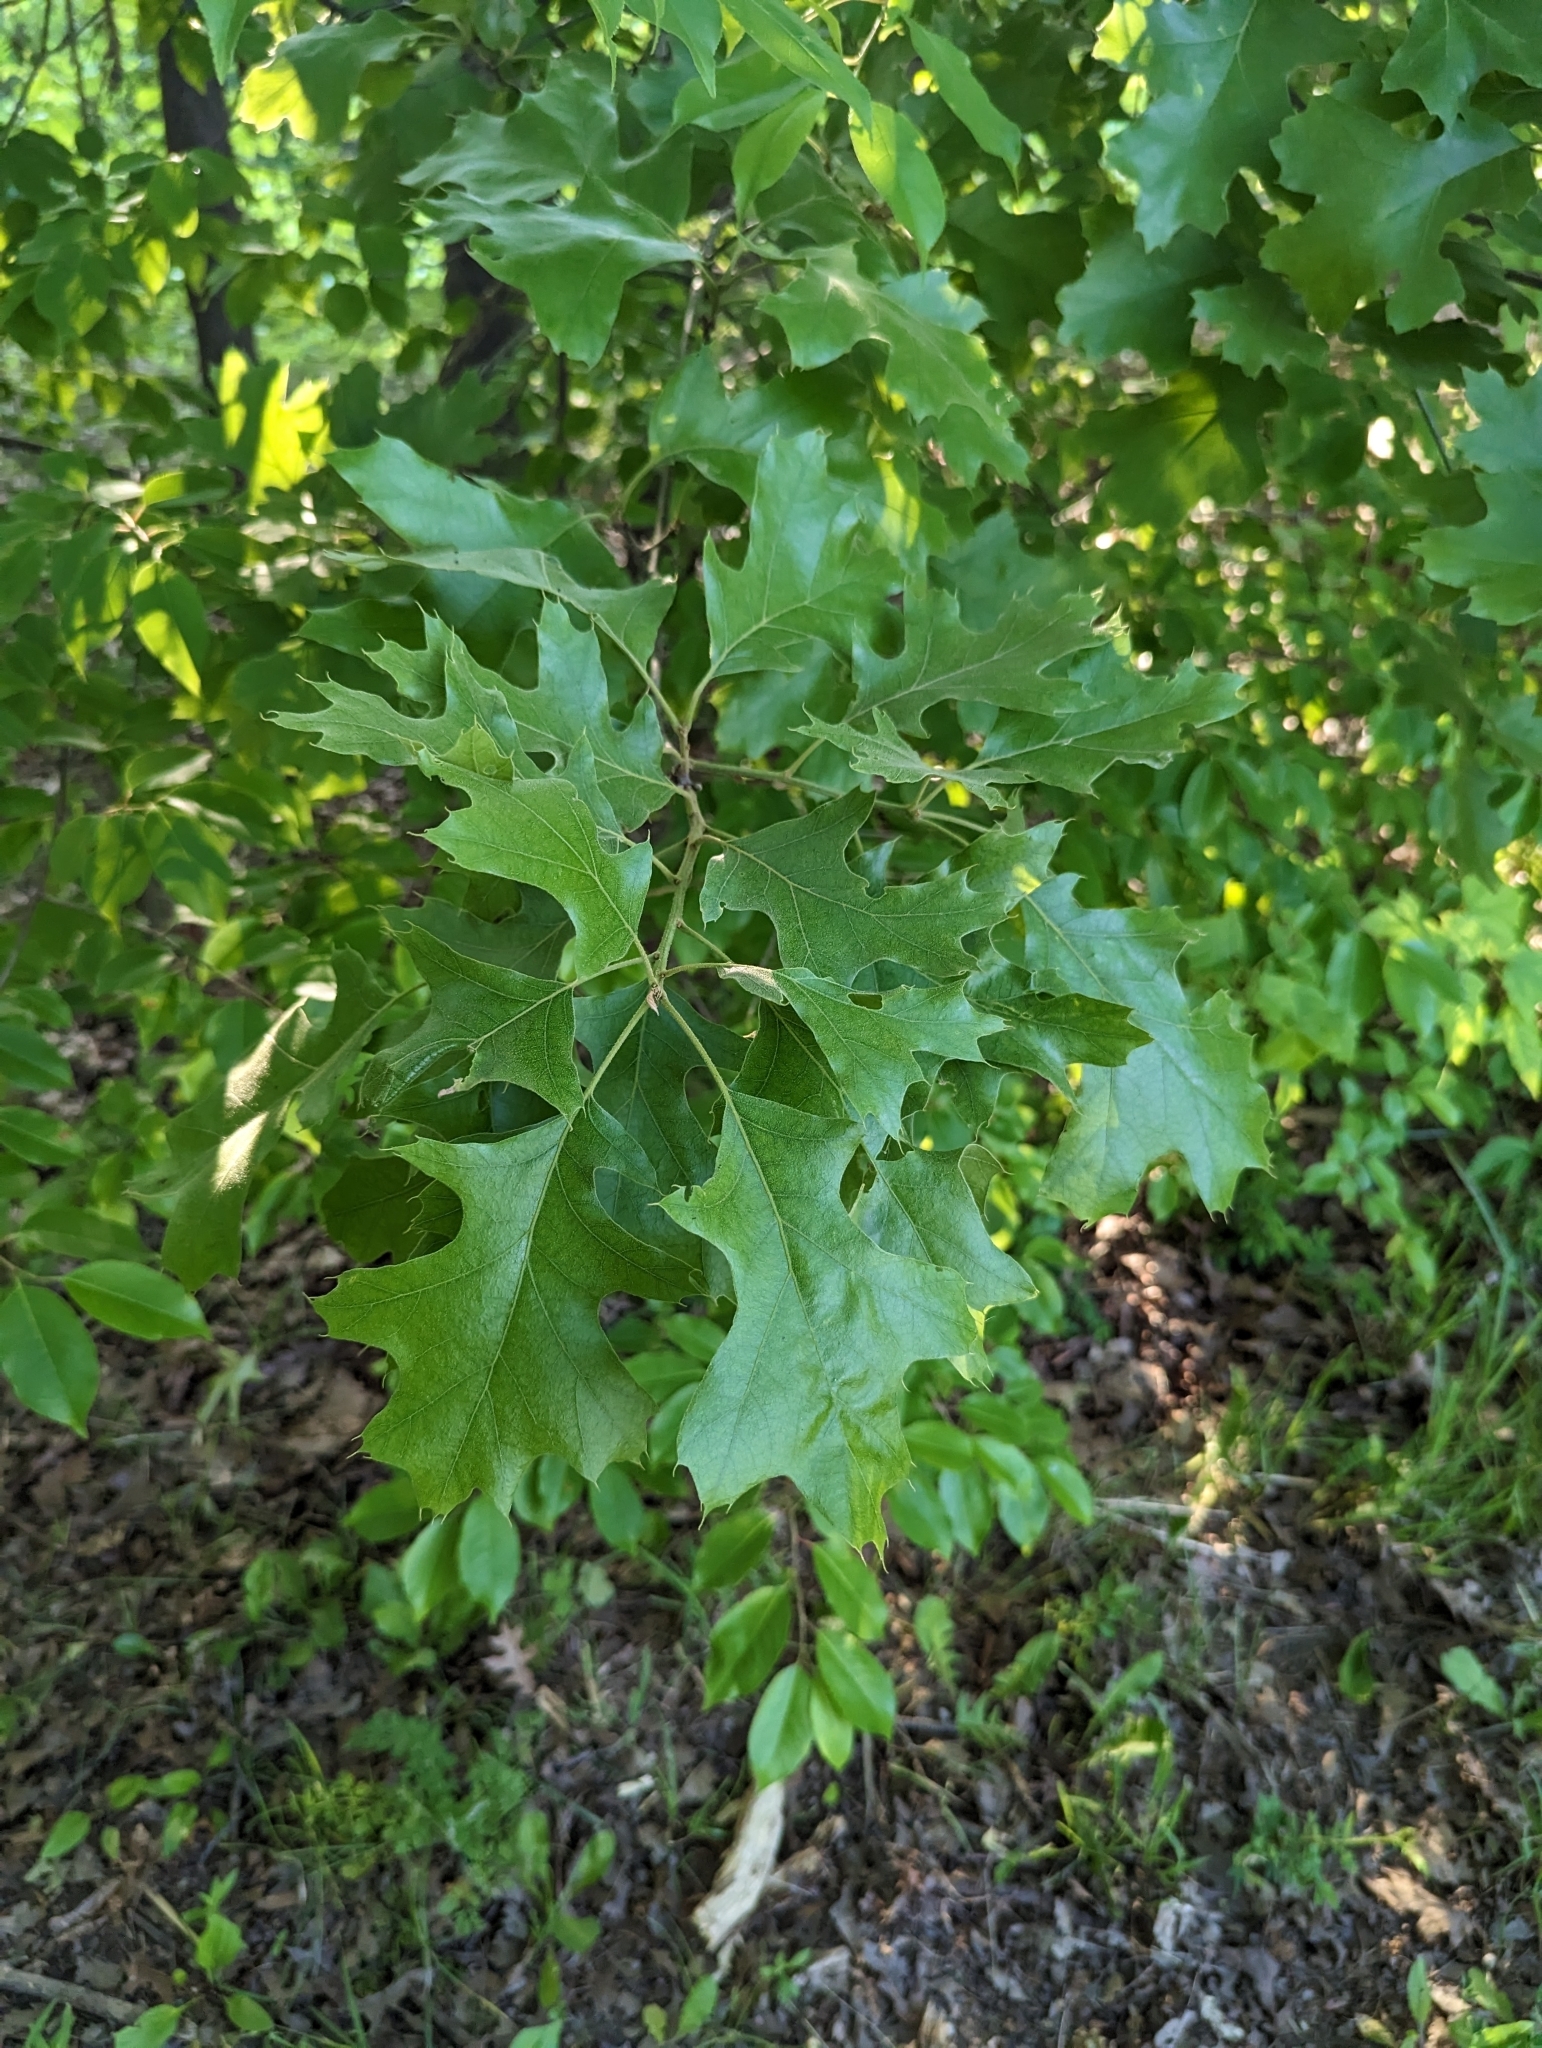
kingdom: Plantae
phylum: Tracheophyta
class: Magnoliopsida
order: Fagales
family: Fagaceae
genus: Quercus
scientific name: Quercus rubra
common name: Red oak
